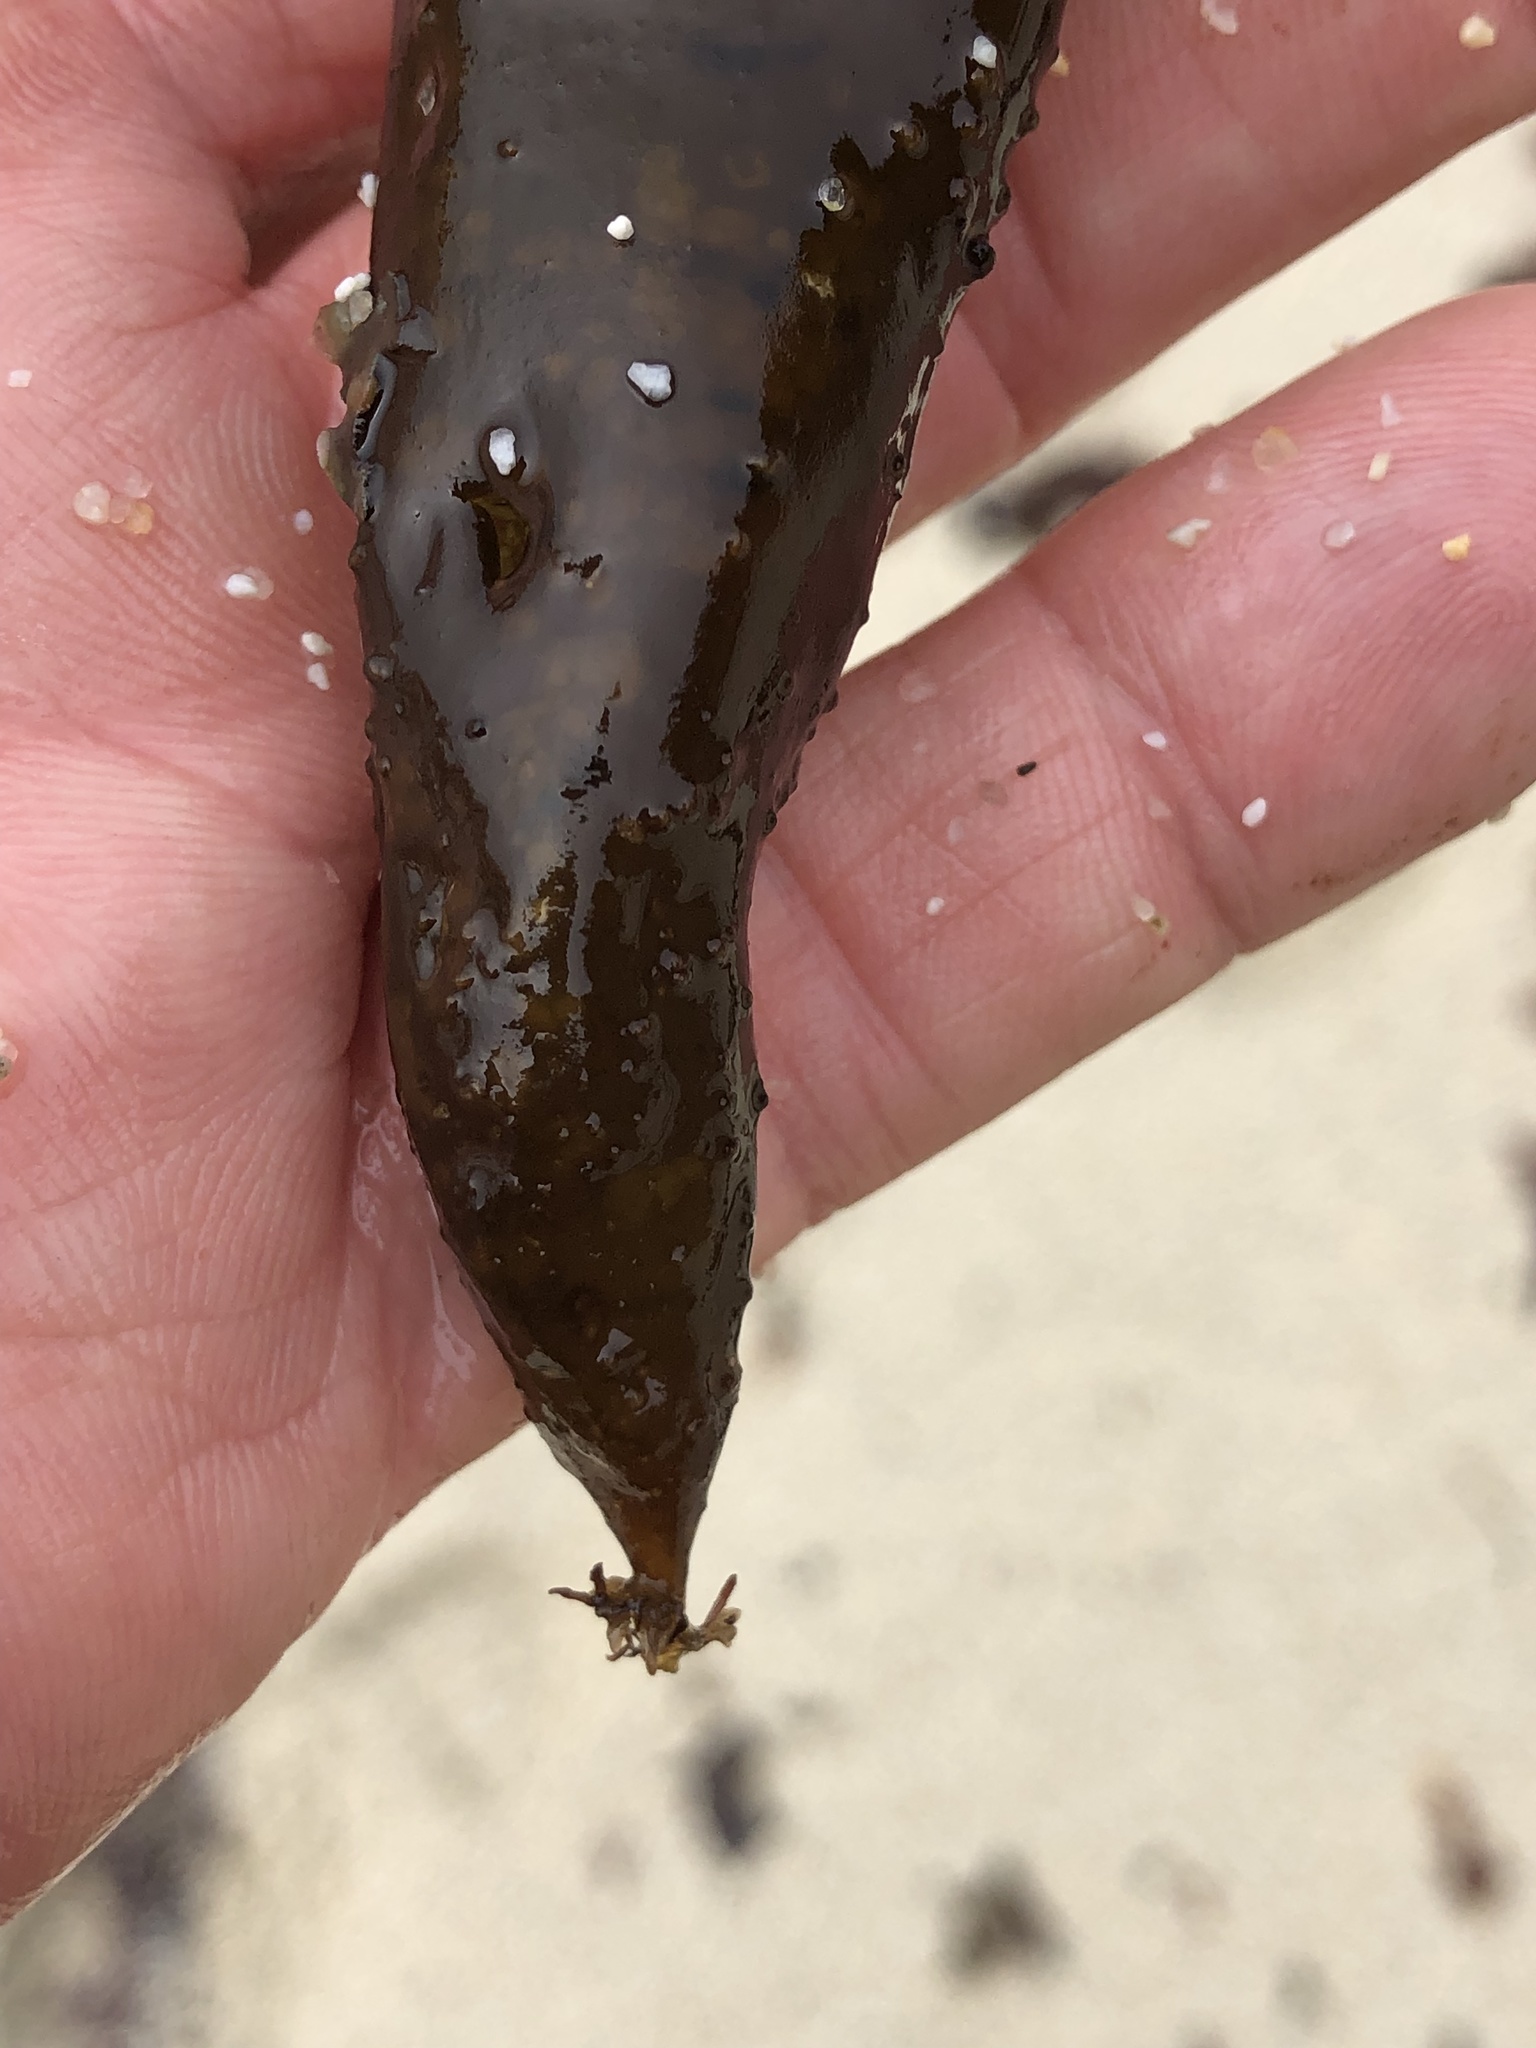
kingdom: Plantae
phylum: Rhodophyta
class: Florideophyceae
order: Palmariales
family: Palmariaceae
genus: Halosaccion
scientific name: Halosaccion glandiforme
